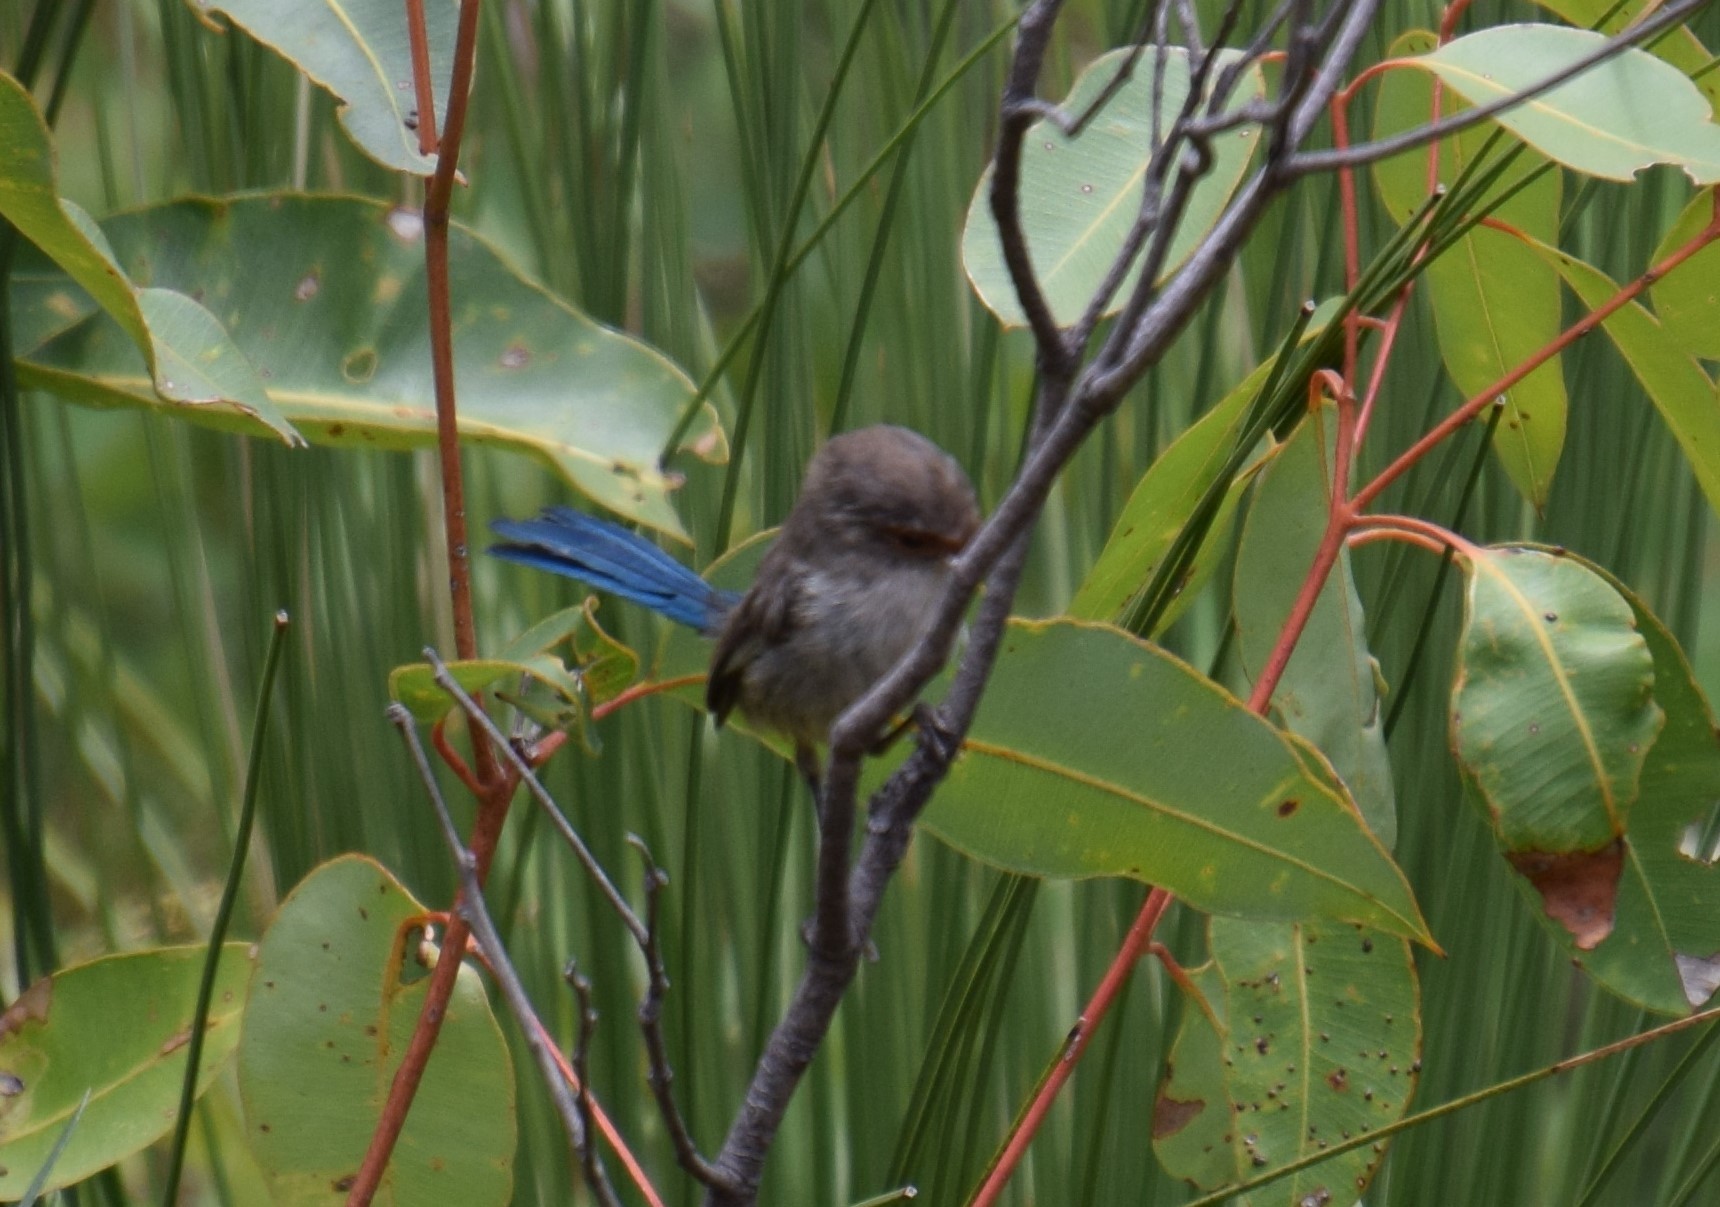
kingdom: Animalia
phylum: Chordata
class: Aves
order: Passeriformes
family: Maluridae
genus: Malurus
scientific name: Malurus splendens
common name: Splendid fairywren
